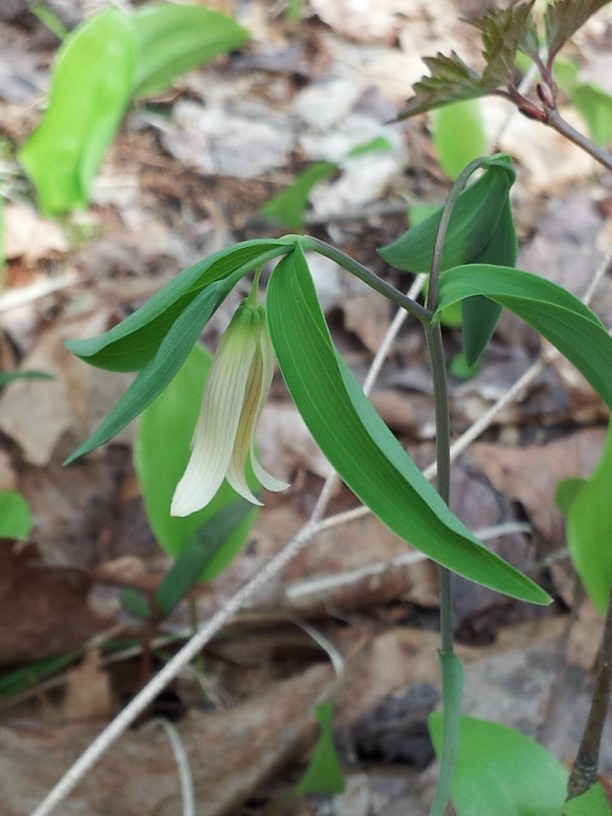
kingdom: Plantae
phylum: Tracheophyta
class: Liliopsida
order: Liliales
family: Colchicaceae
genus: Uvularia
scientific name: Uvularia sessilifolia
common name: Straw-lily
